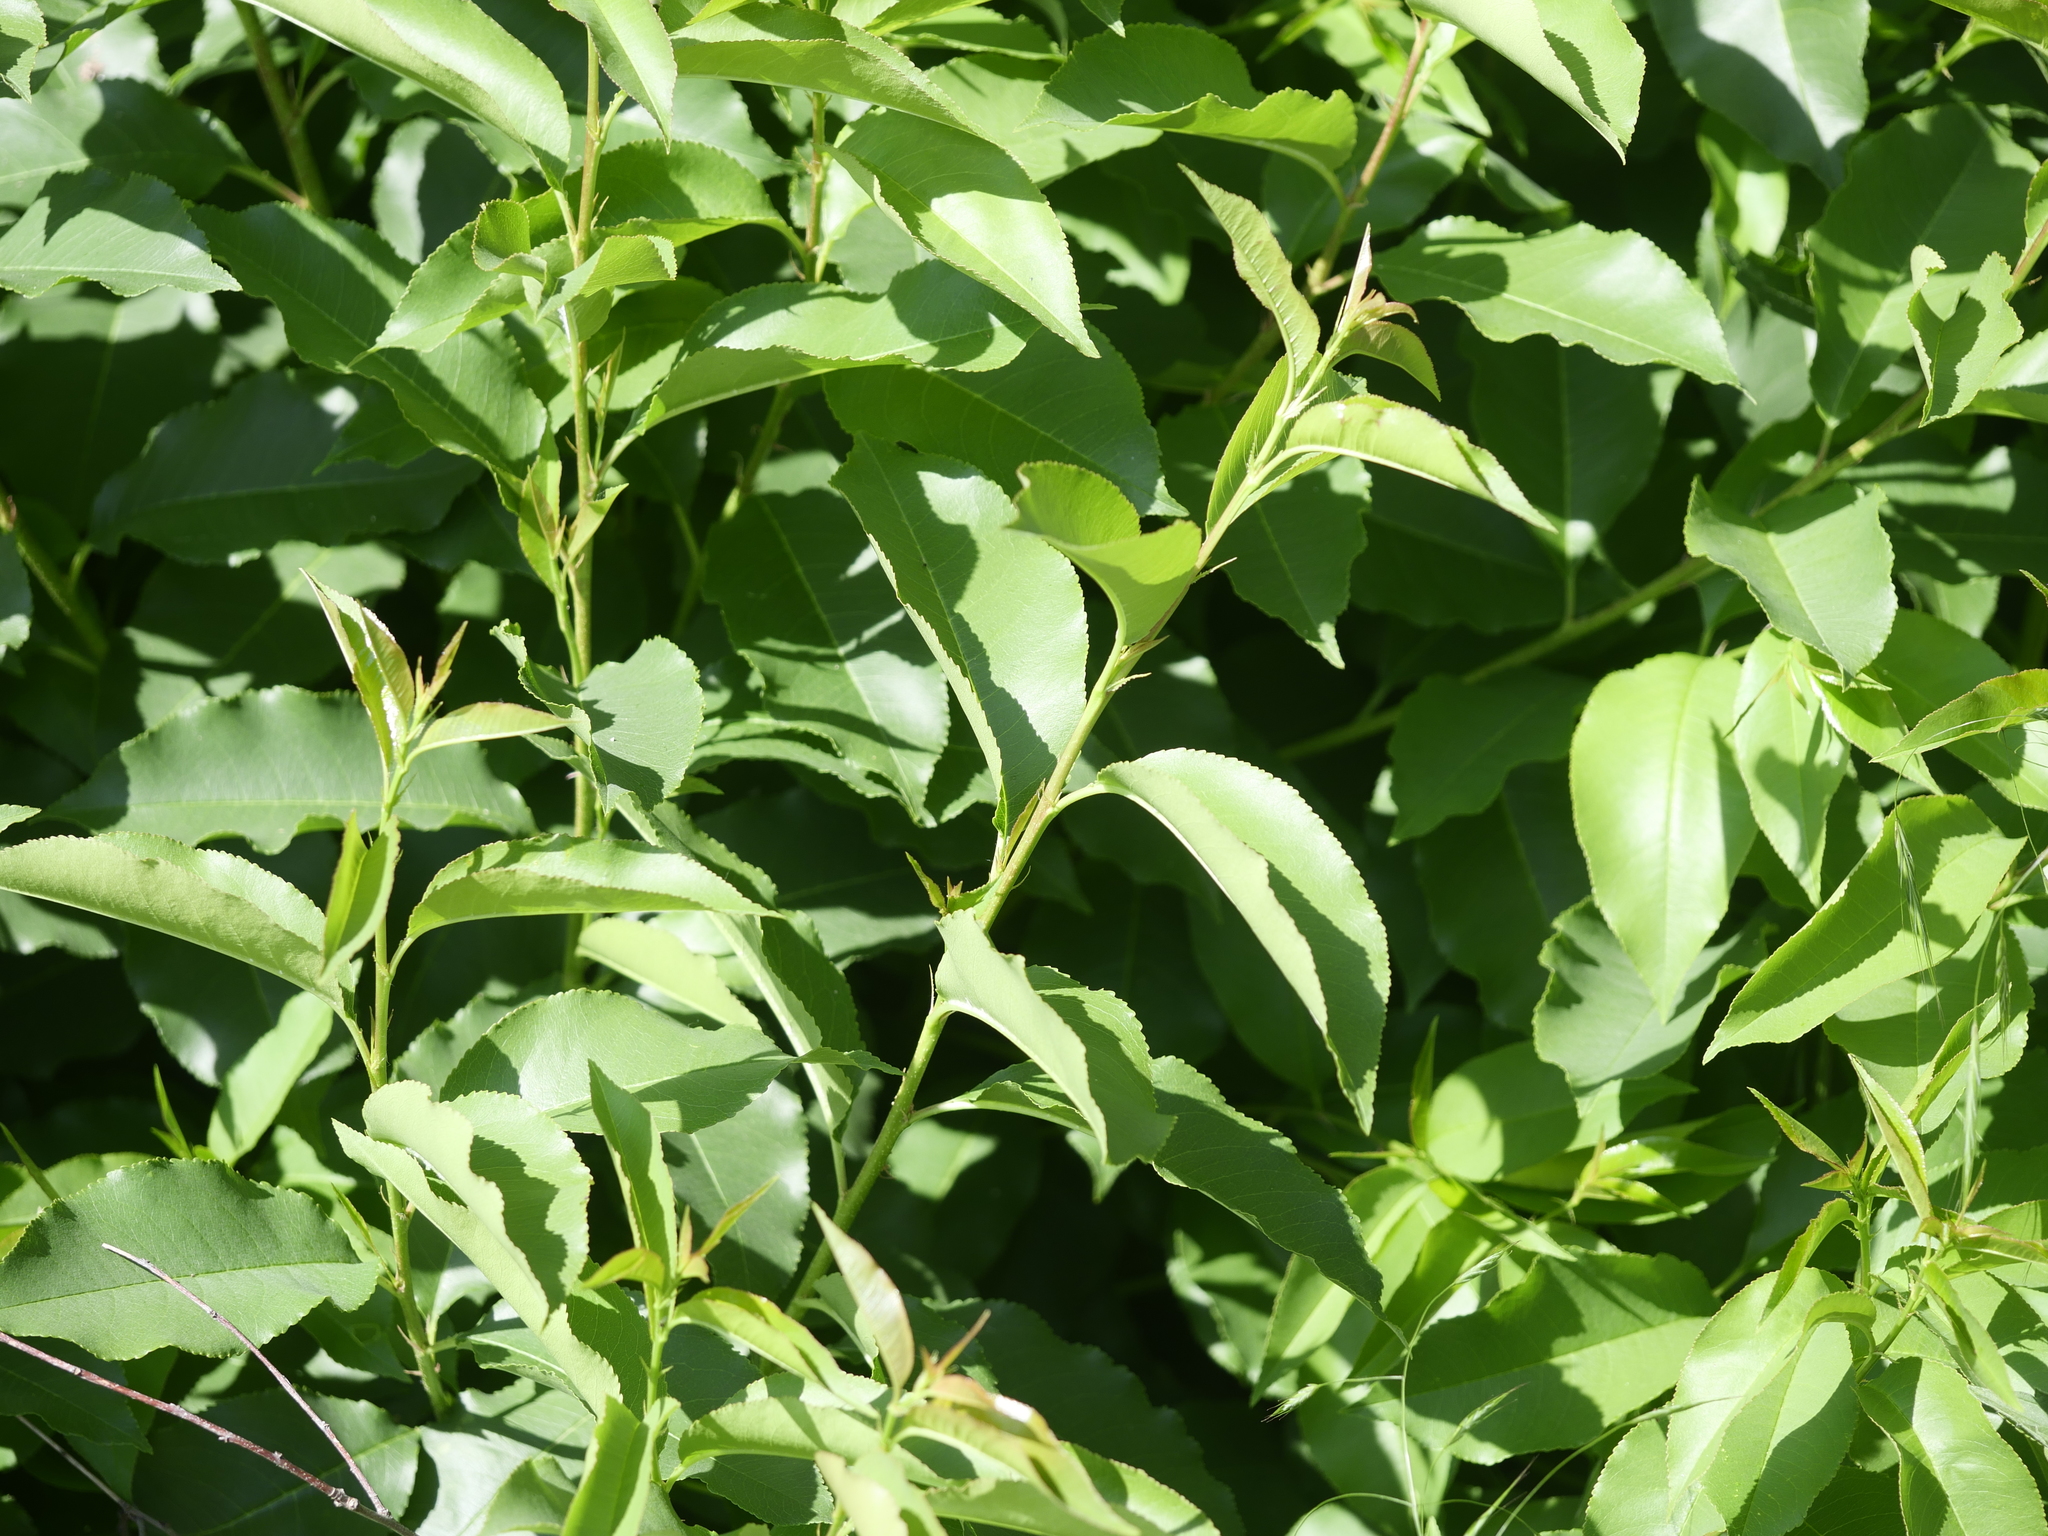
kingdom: Plantae
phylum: Tracheophyta
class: Magnoliopsida
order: Rosales
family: Rosaceae
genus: Prunus
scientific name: Prunus serotina
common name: Black cherry
